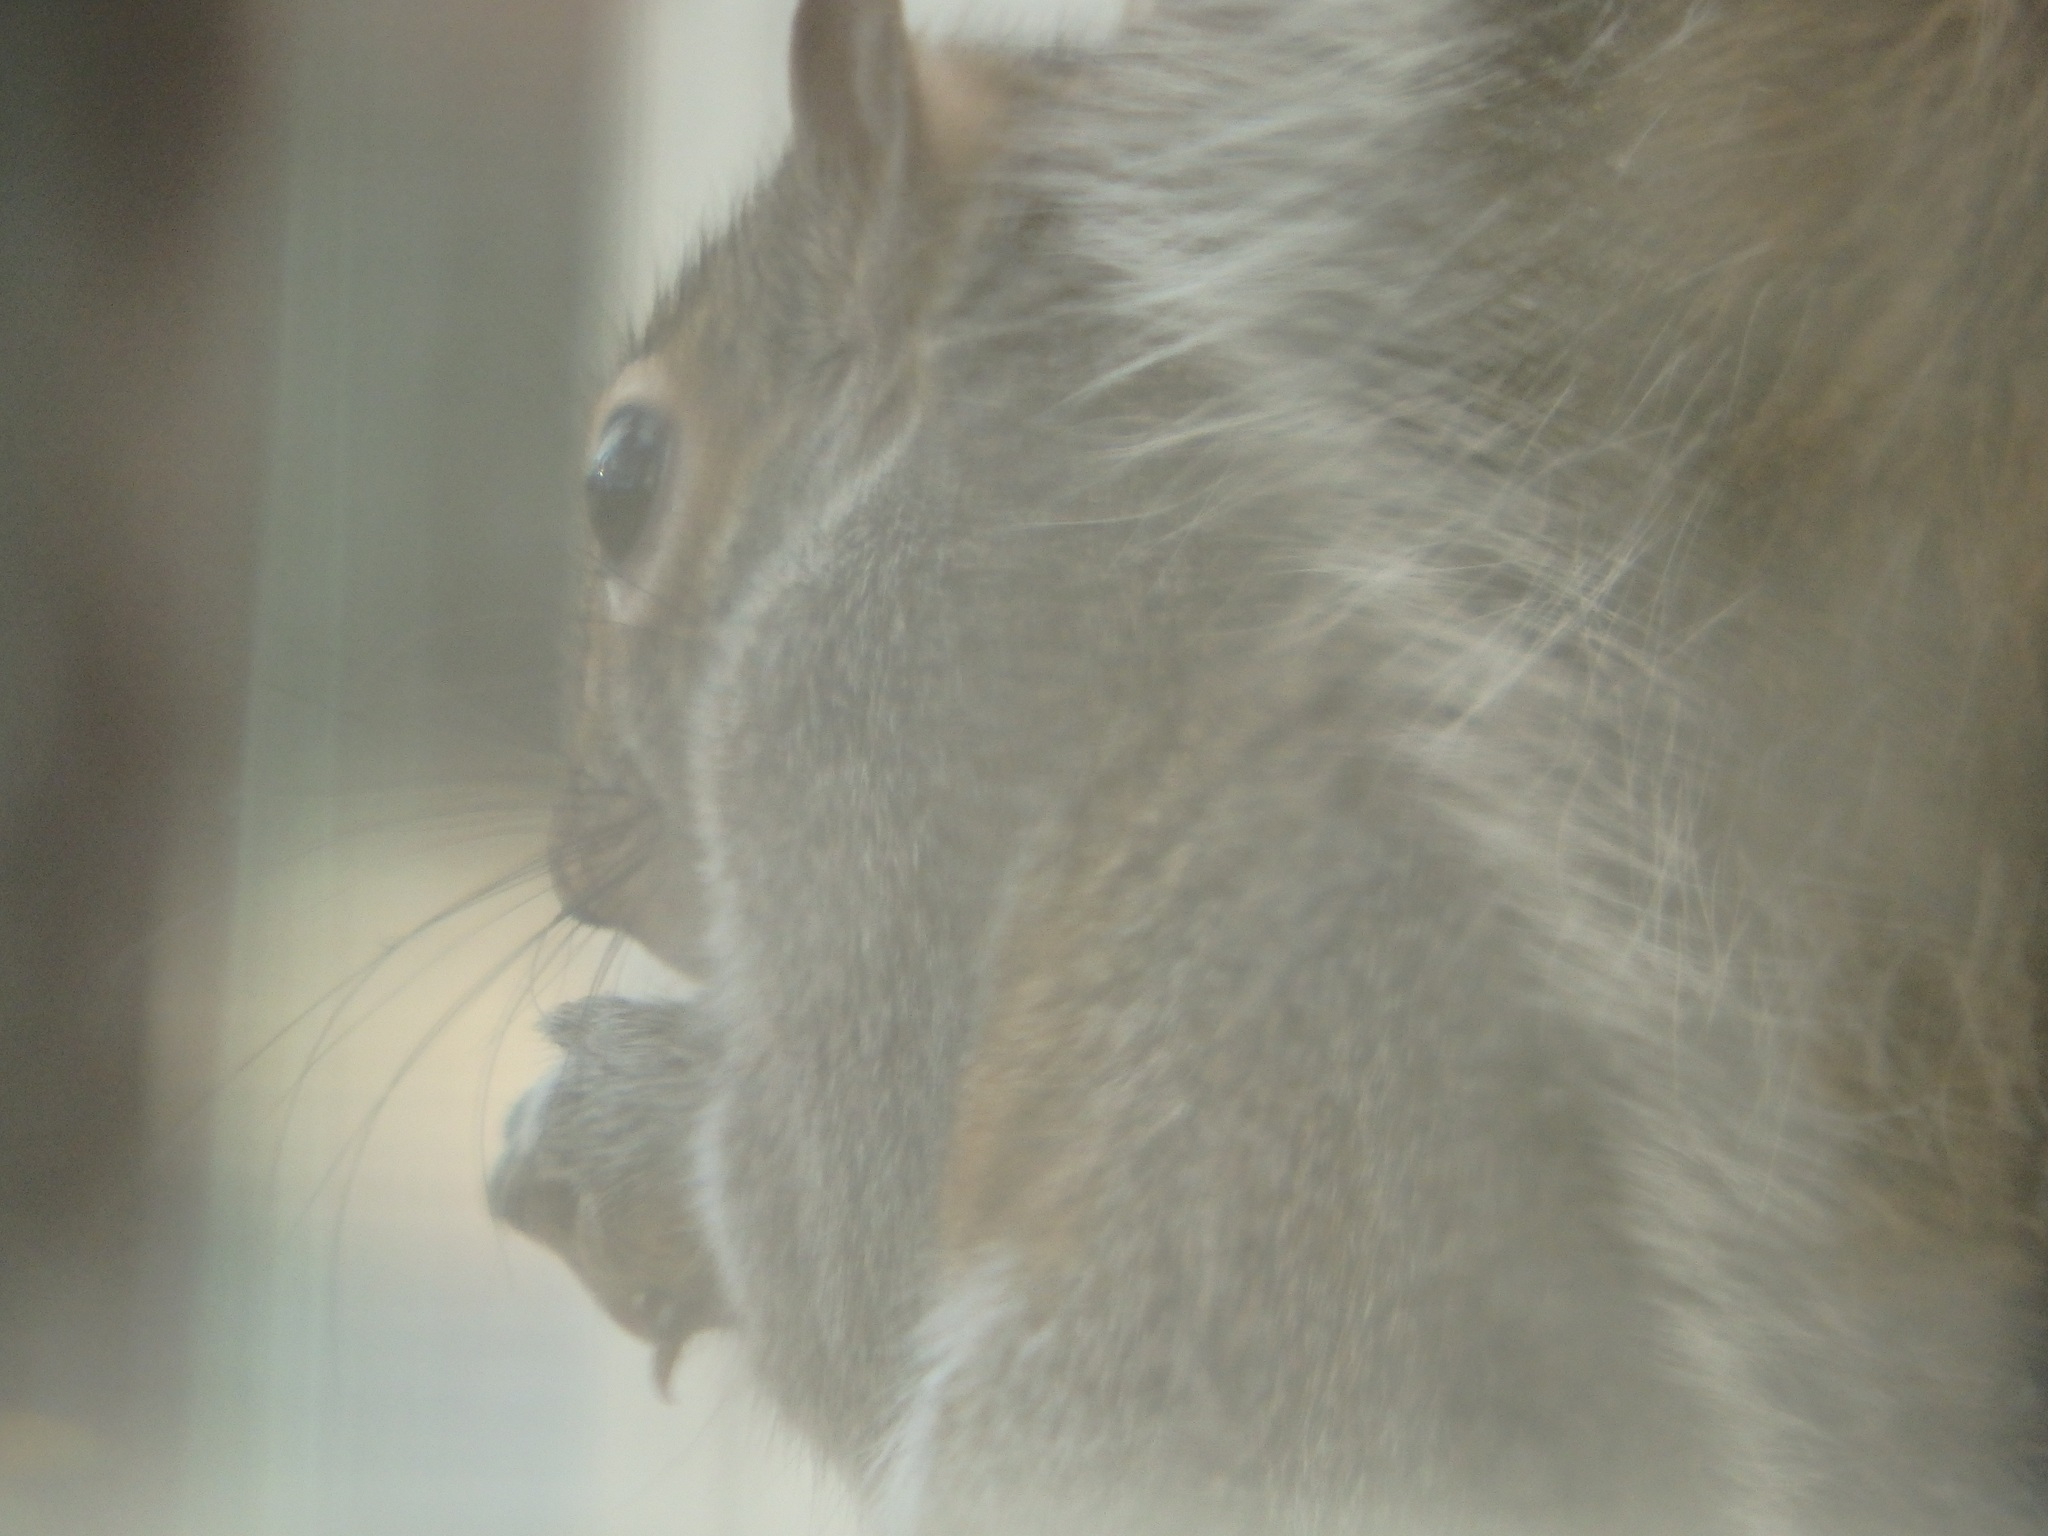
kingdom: Animalia
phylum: Chordata
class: Mammalia
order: Rodentia
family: Sciuridae
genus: Sciurus
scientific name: Sciurus carolinensis
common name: Eastern gray squirrel
